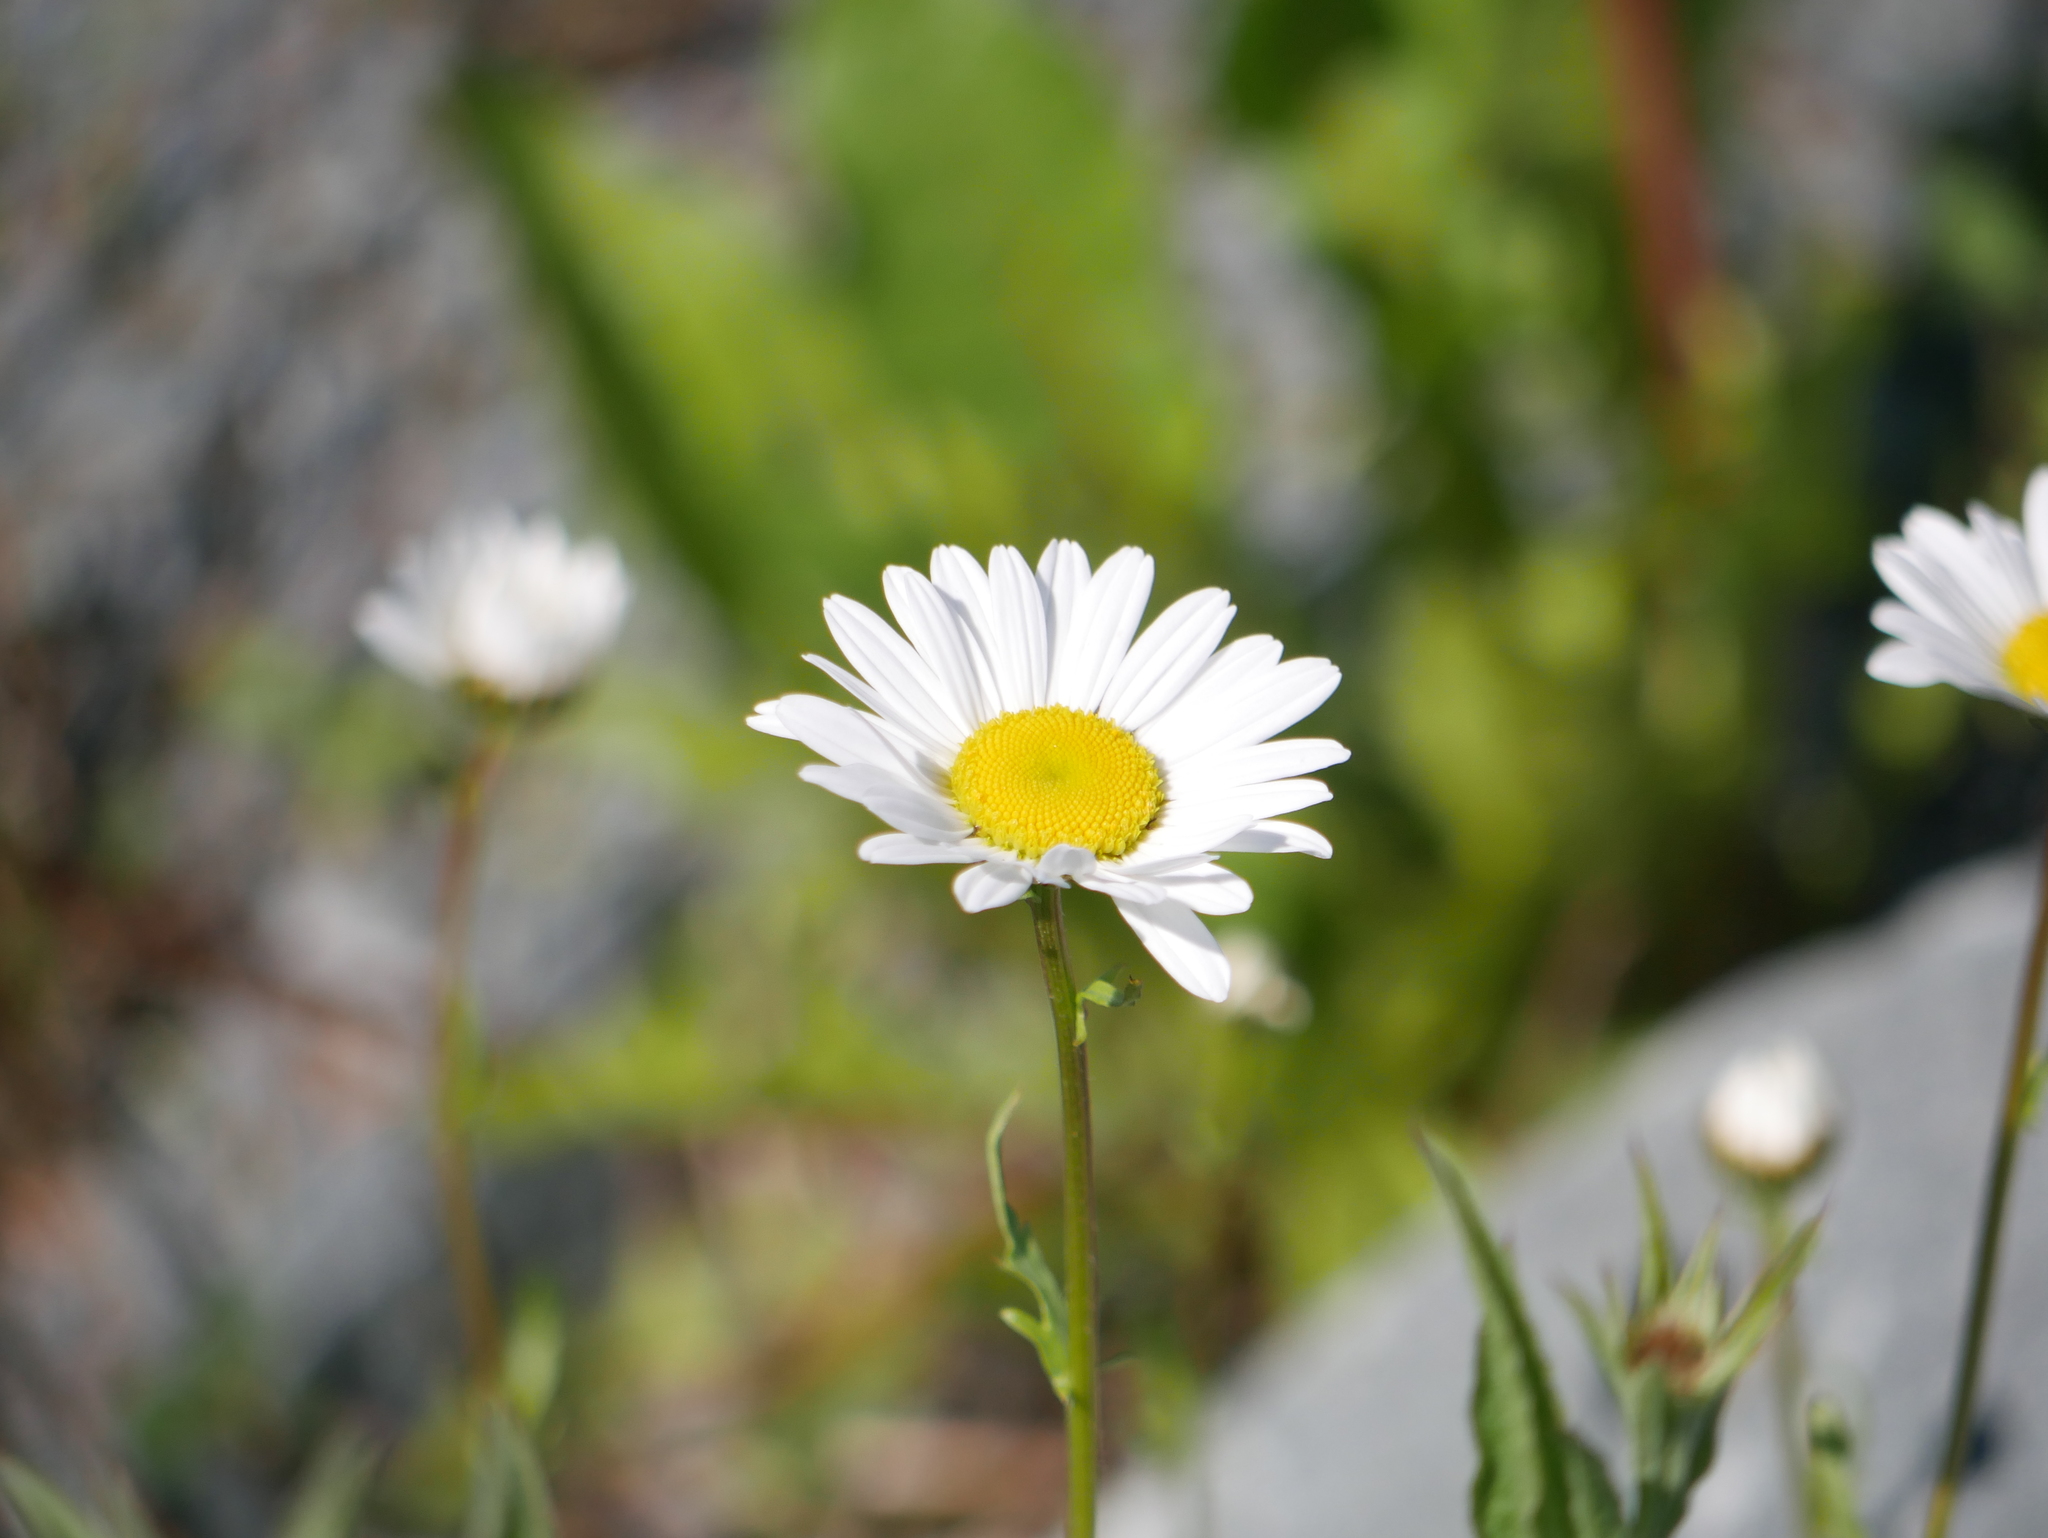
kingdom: Plantae
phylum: Tracheophyta
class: Magnoliopsida
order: Asterales
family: Asteraceae
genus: Leucanthemum
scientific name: Leucanthemum vulgare
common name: Oxeye daisy
